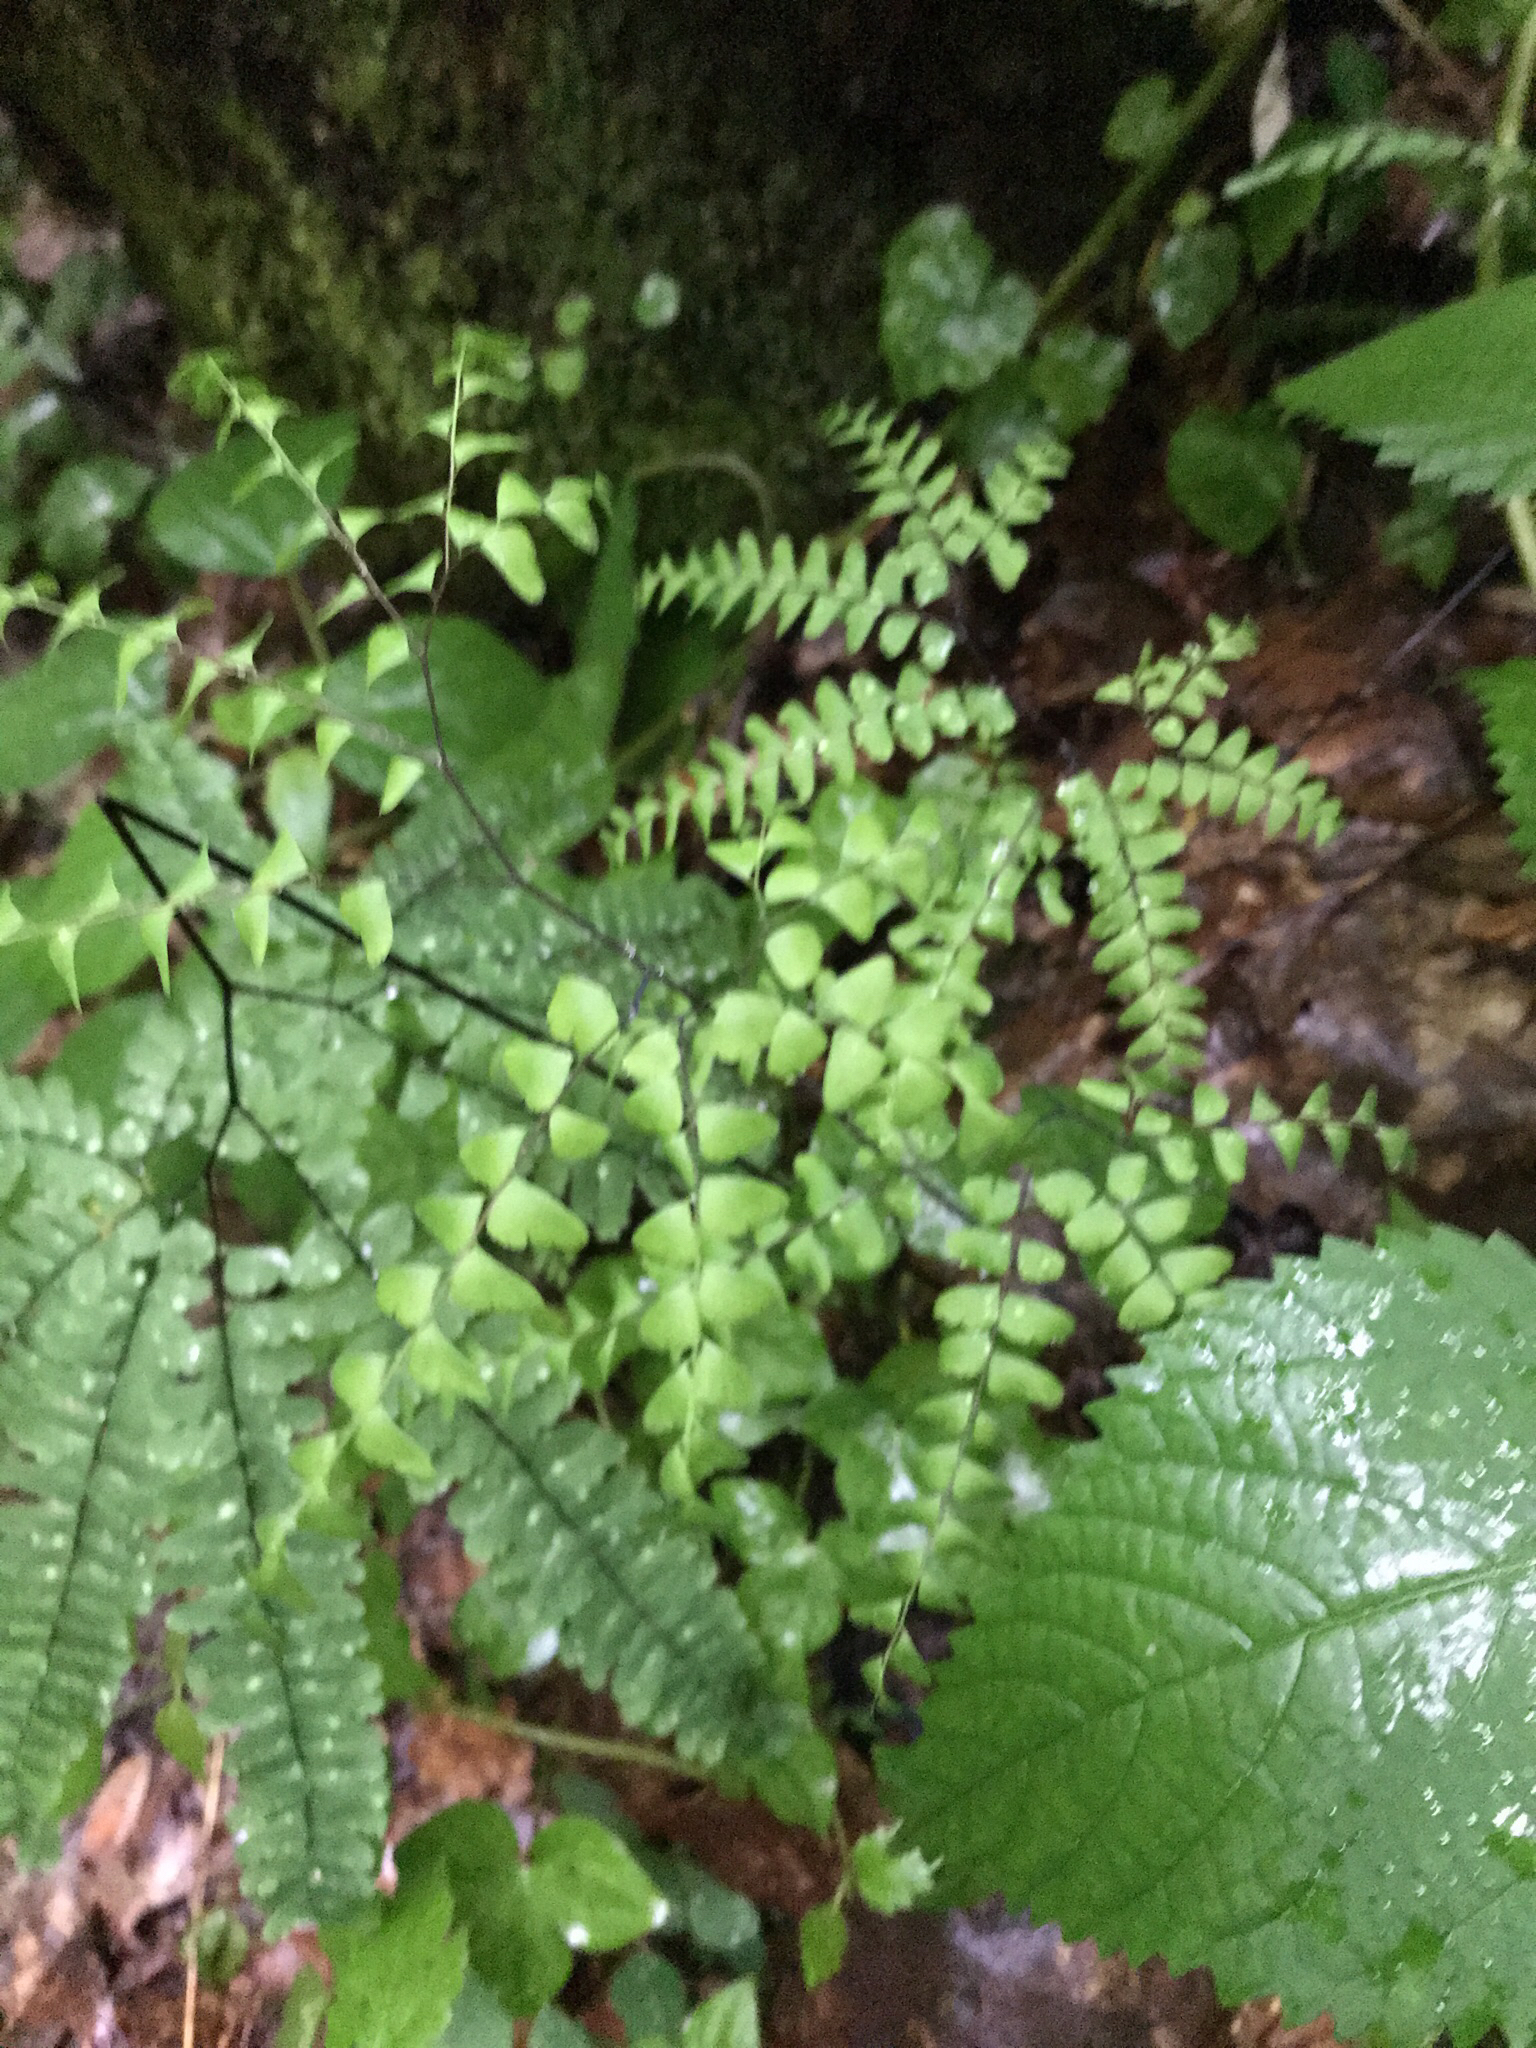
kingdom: Plantae
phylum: Tracheophyta
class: Polypodiopsida
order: Polypodiales
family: Pteridaceae
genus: Adiantum
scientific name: Adiantum pedatum
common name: Five-finger fern
